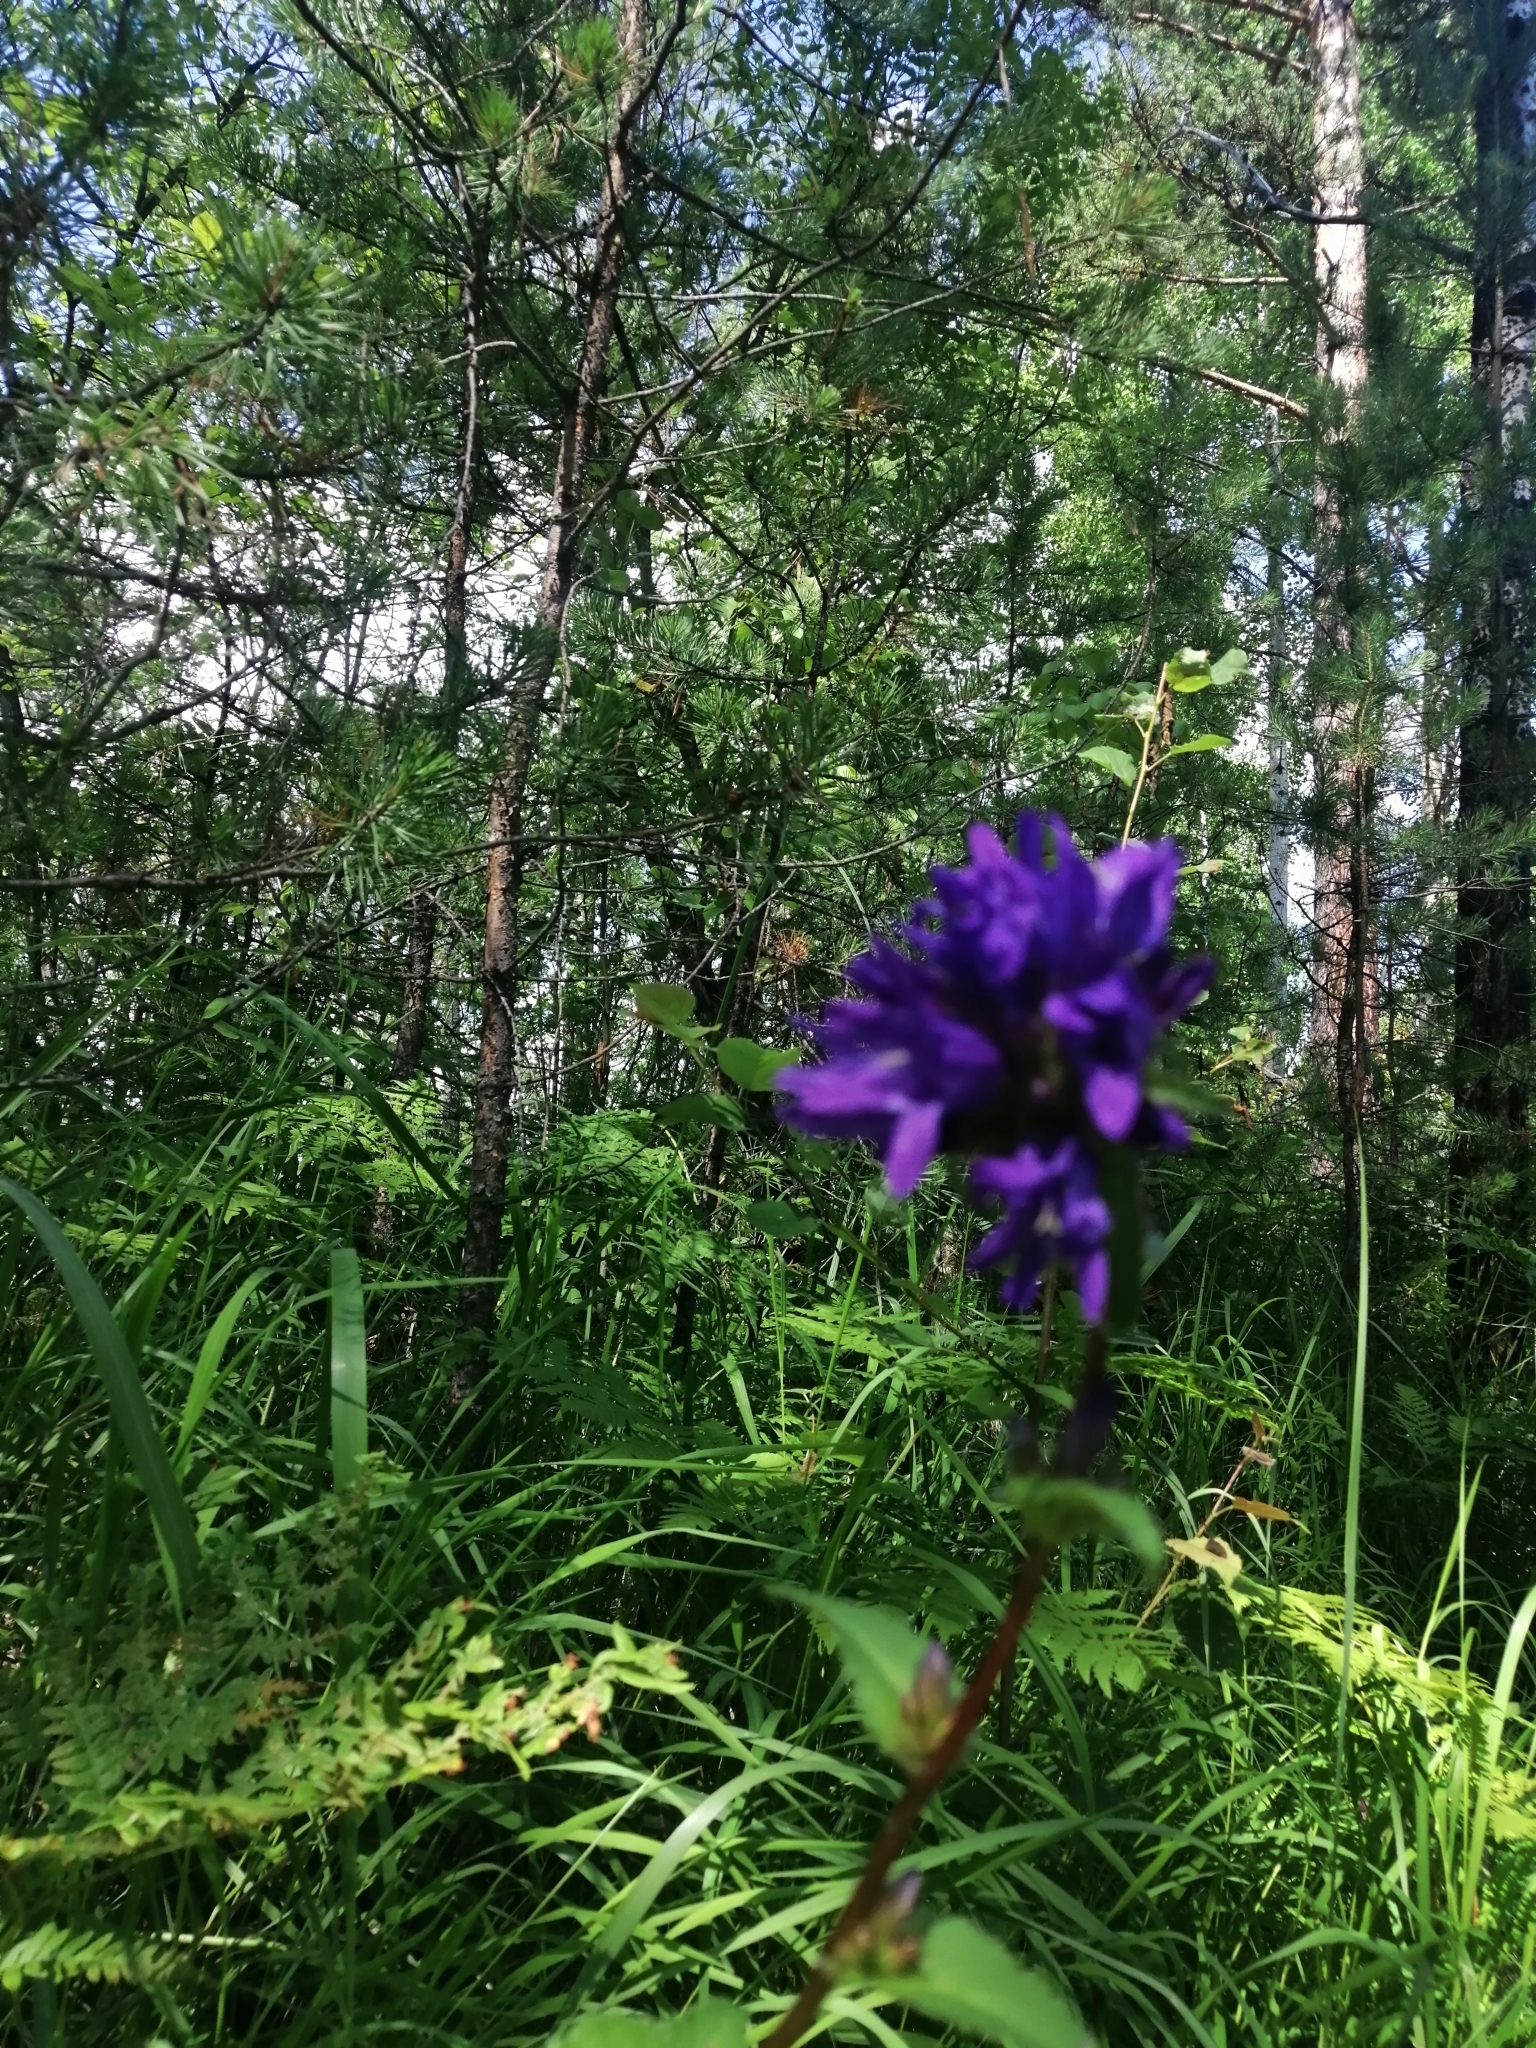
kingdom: Plantae
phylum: Tracheophyta
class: Magnoliopsida
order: Asterales
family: Campanulaceae
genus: Campanula
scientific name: Campanula glomerata
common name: Clustered bellflower
